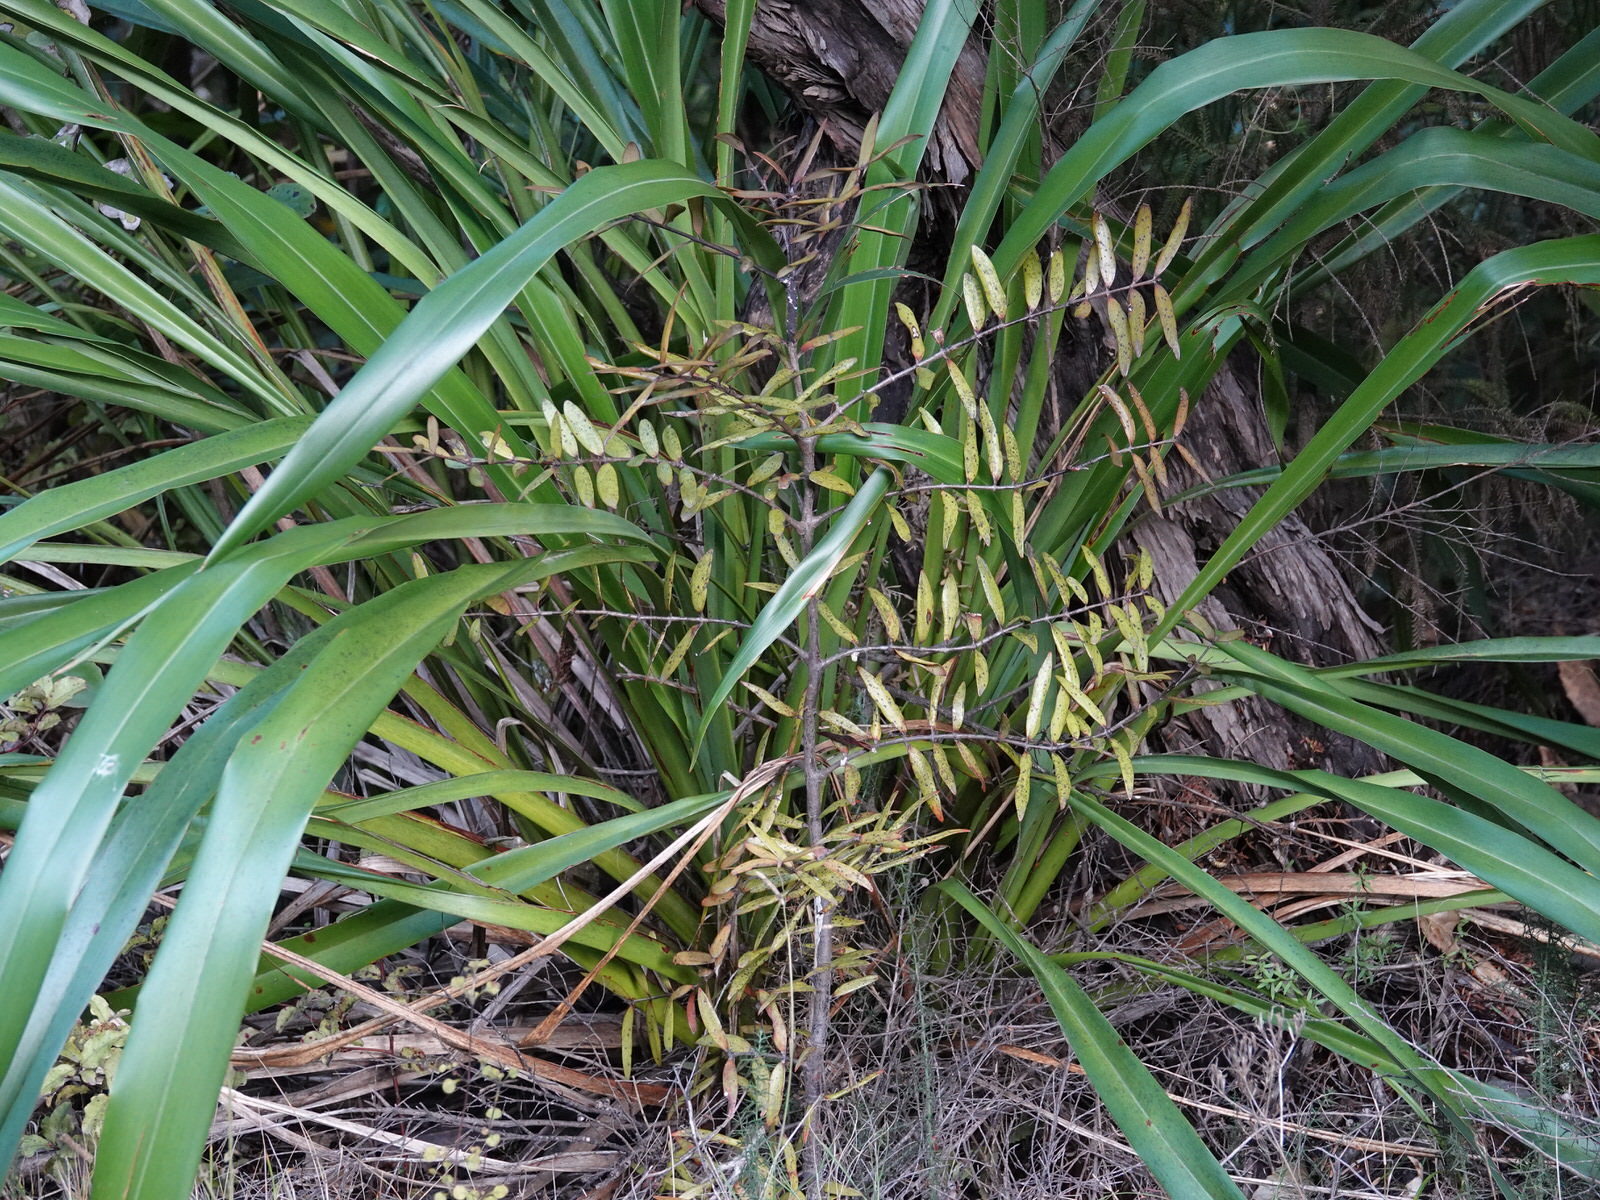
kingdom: Plantae
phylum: Tracheophyta
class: Pinopsida
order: Pinales
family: Araucariaceae
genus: Agathis
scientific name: Agathis australis
